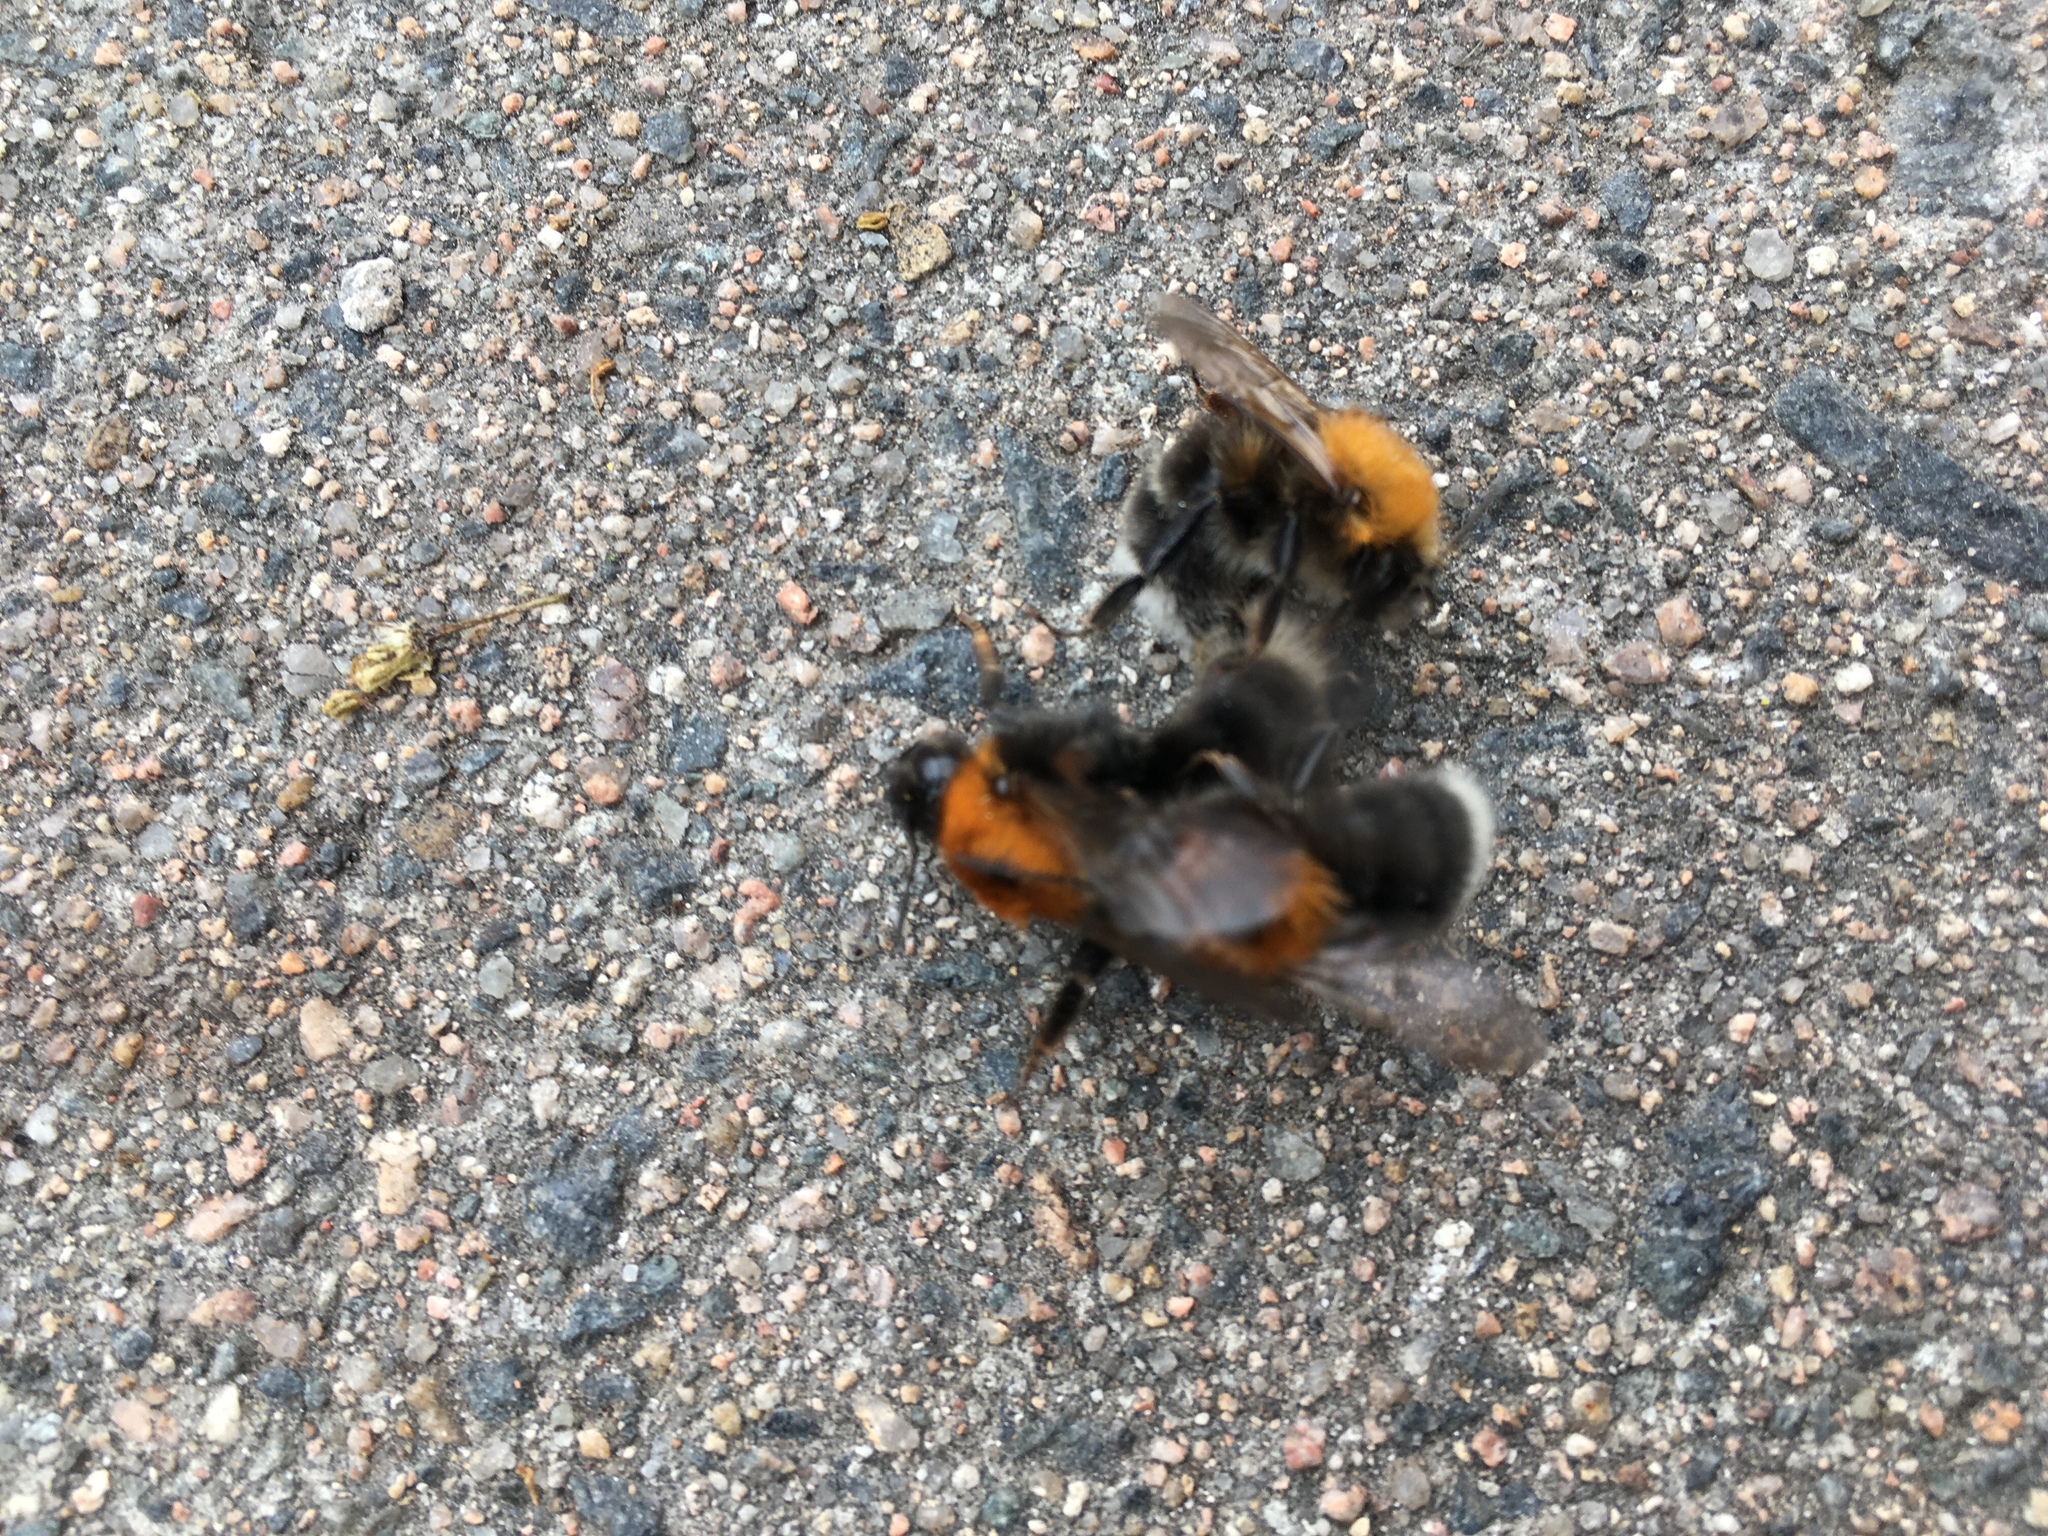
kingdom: Animalia
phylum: Arthropoda
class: Insecta
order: Hymenoptera
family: Apidae
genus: Bombus
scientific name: Bombus hypnorum
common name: New garden bumblebee
